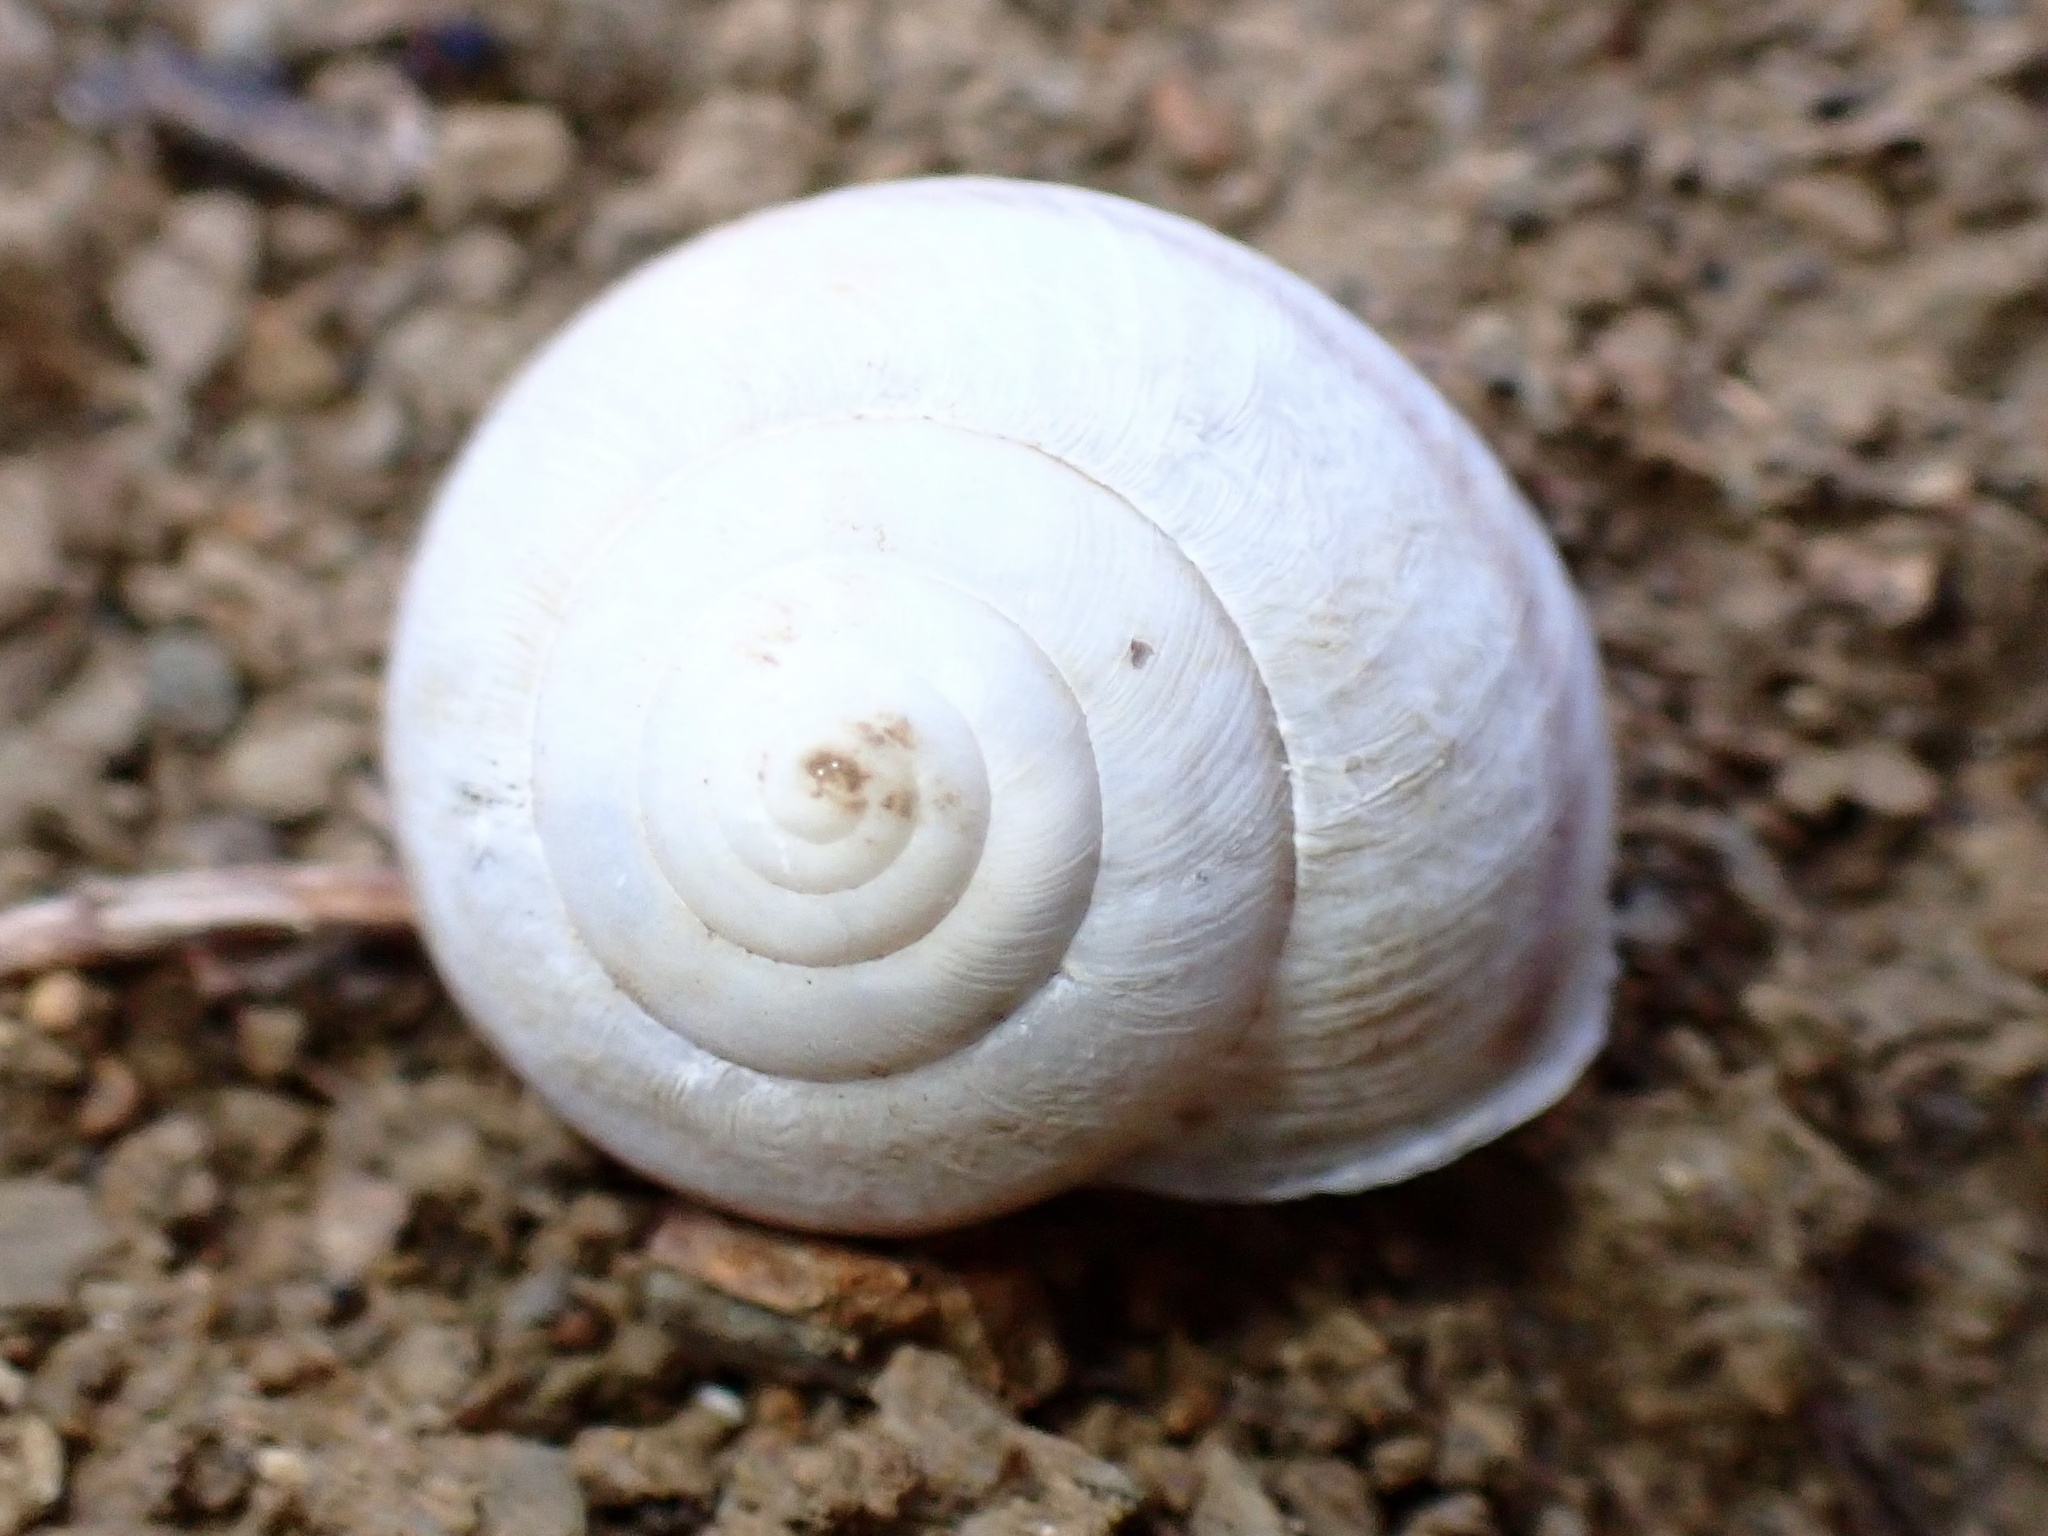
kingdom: Animalia
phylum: Mollusca
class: Gastropoda
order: Stylommatophora
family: Xanthonychidae
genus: Helminthoglypta
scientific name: Helminthoglypta tudiculata
